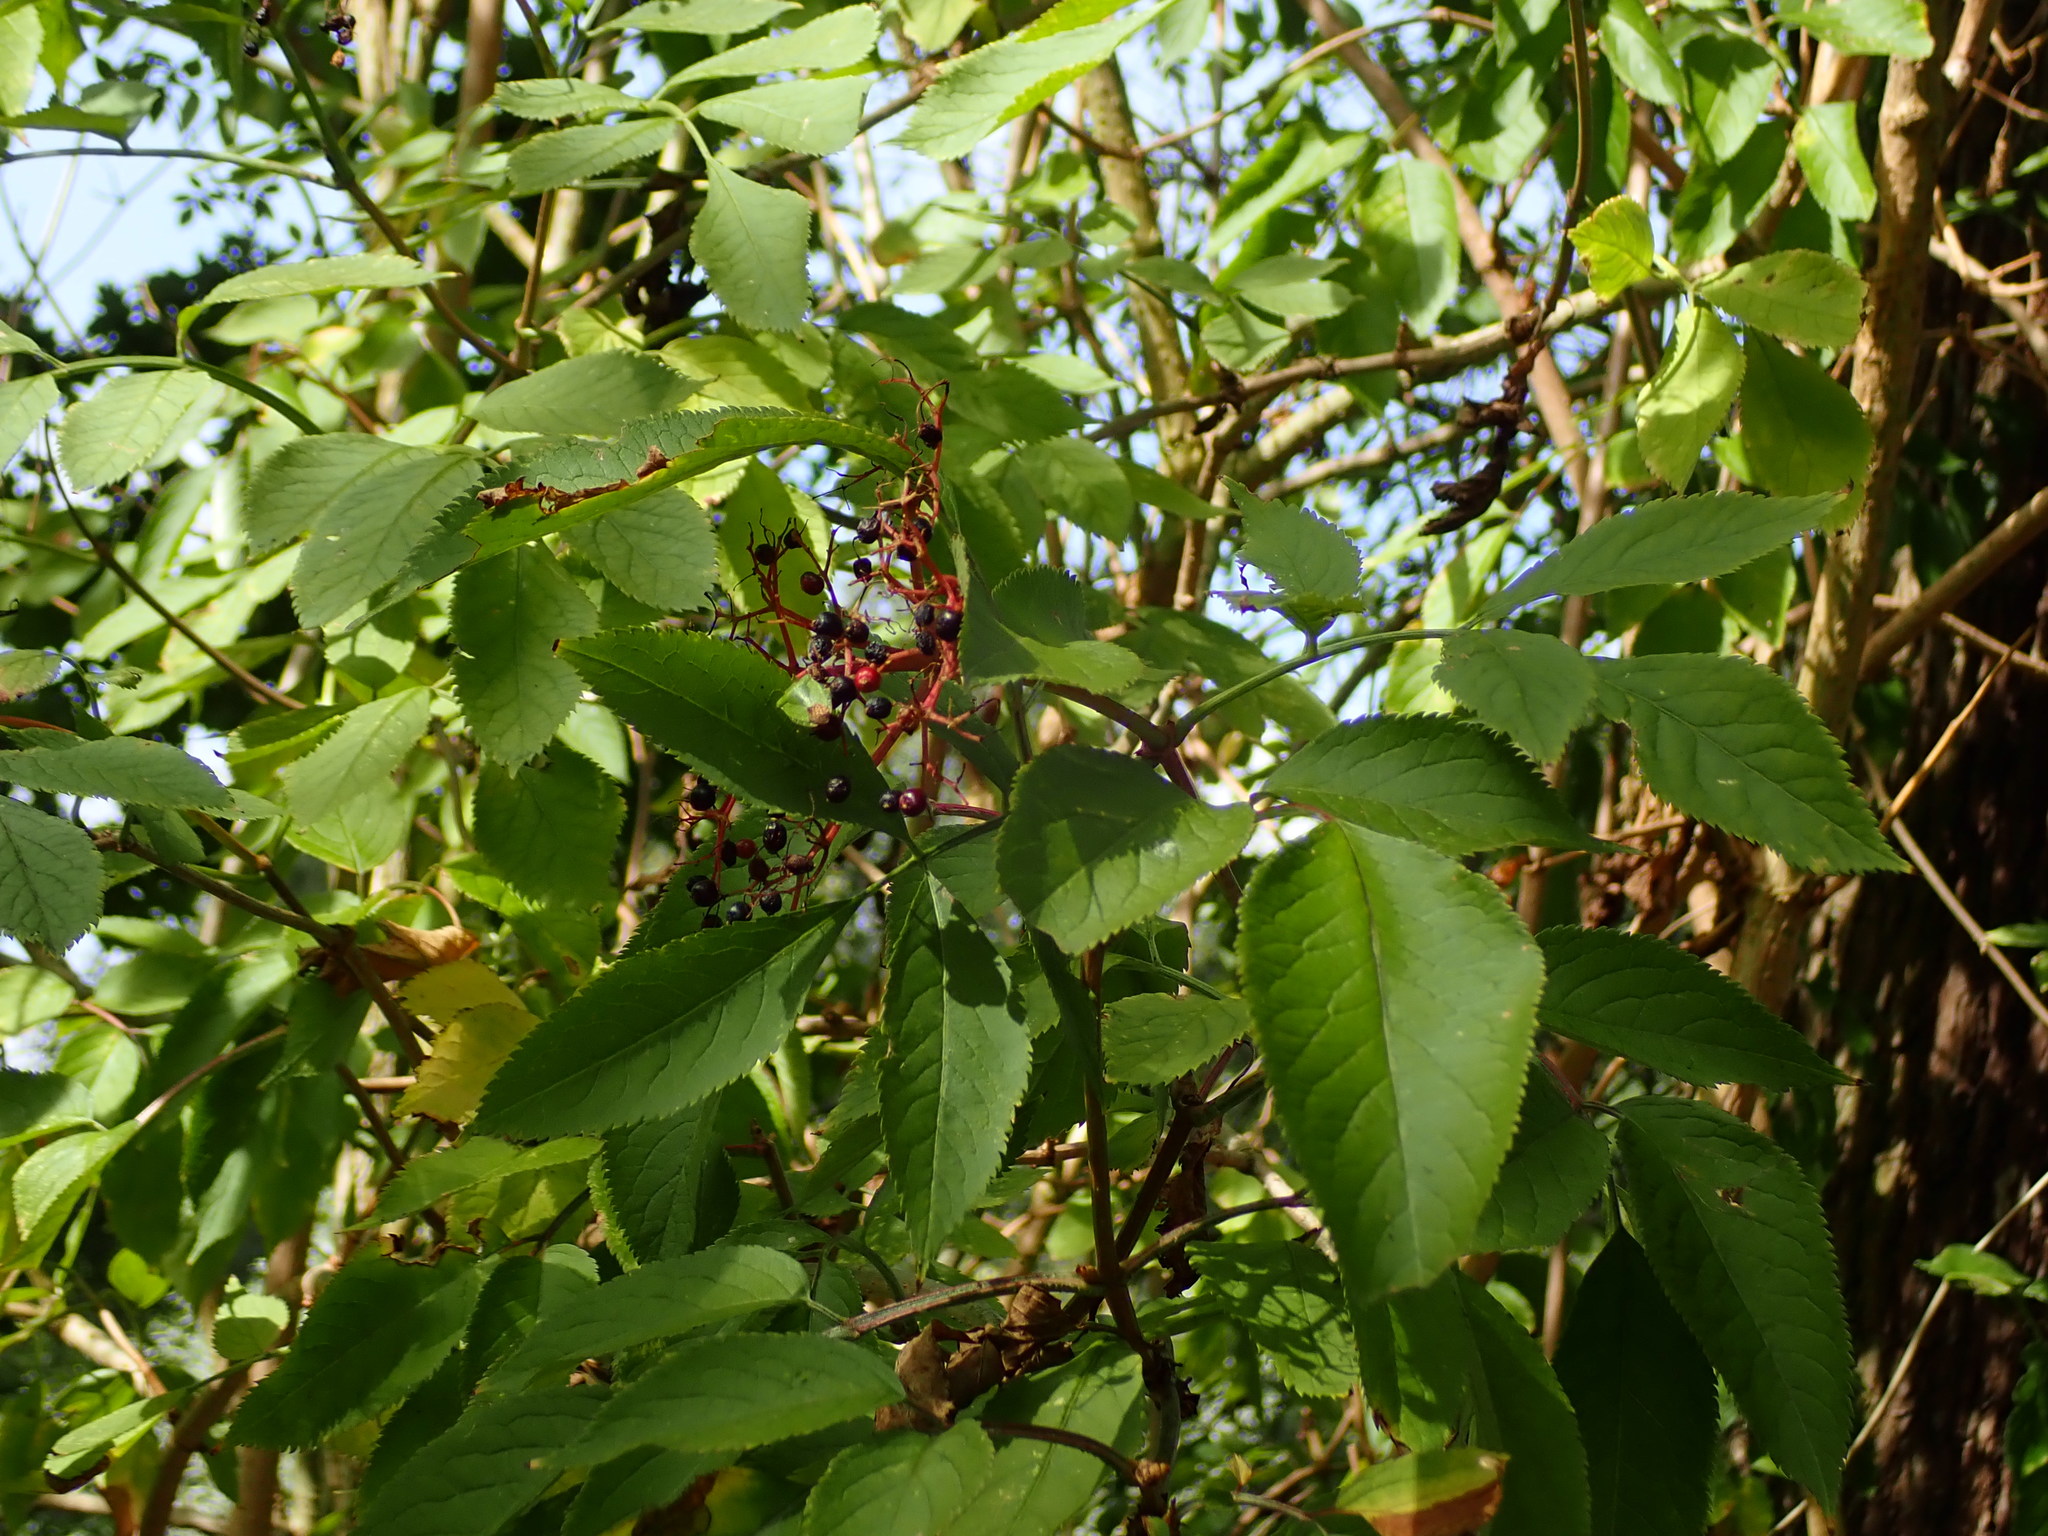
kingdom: Plantae
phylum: Tracheophyta
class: Magnoliopsida
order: Dipsacales
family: Viburnaceae
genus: Sambucus
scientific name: Sambucus nigra
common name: Elder
